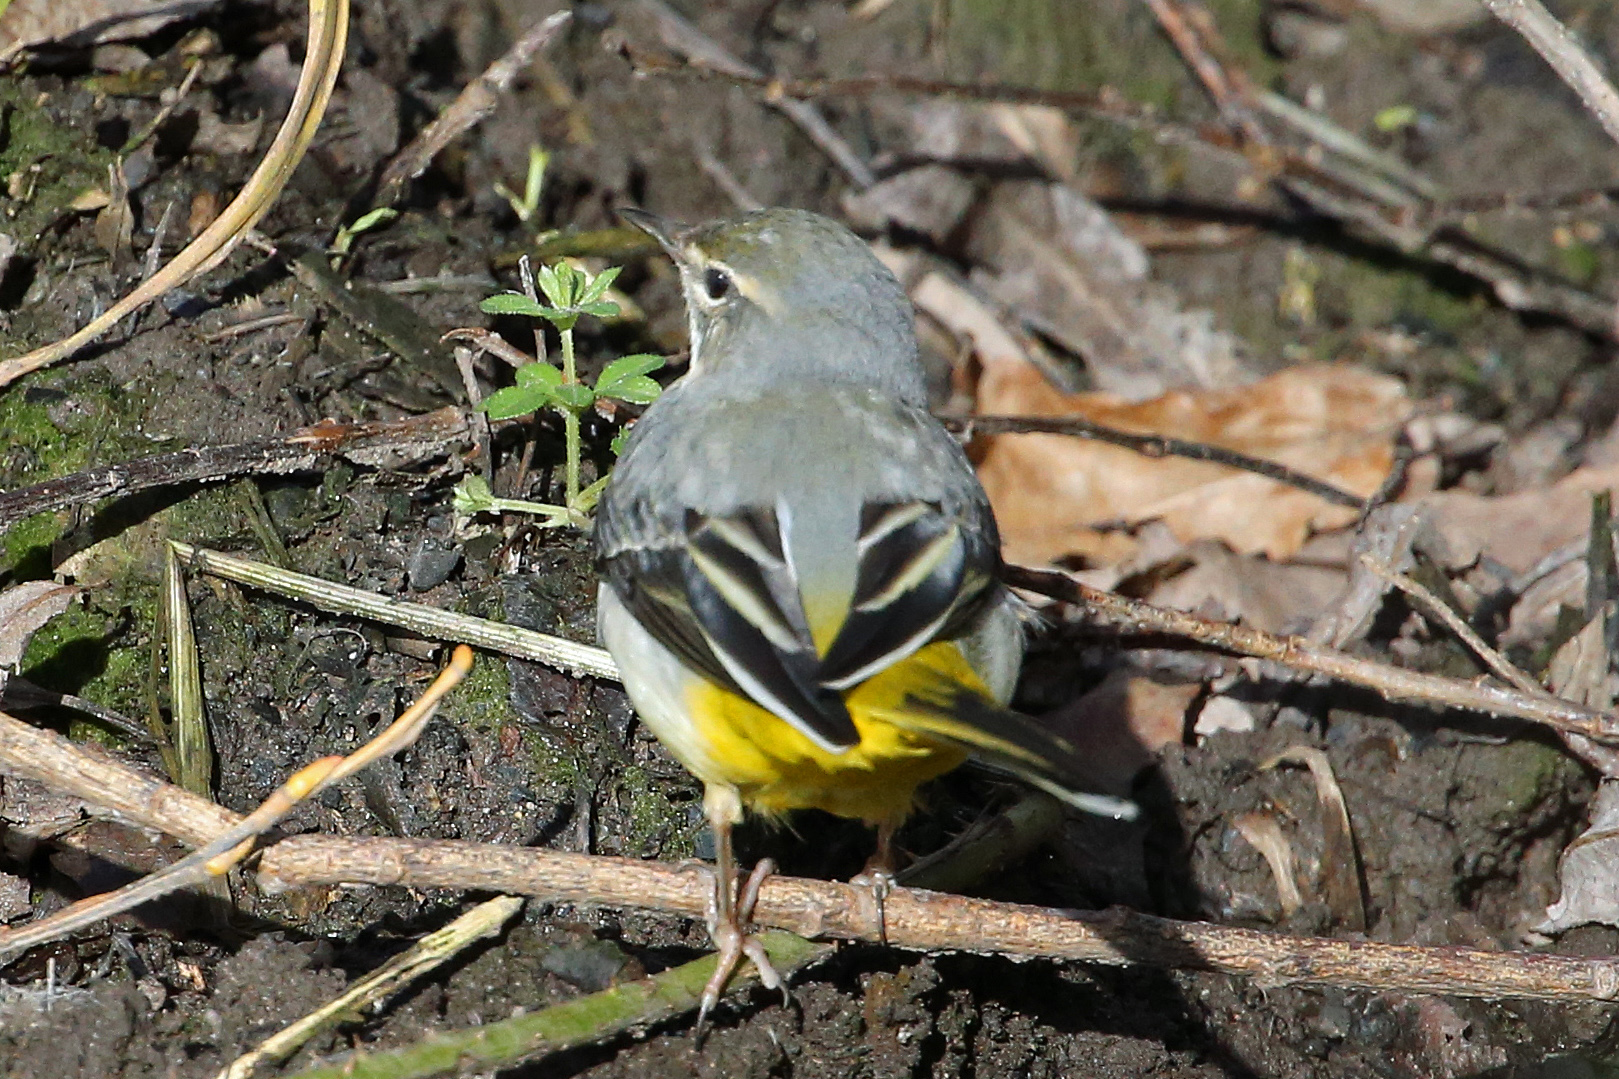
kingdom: Animalia
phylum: Chordata
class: Aves
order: Passeriformes
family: Motacillidae
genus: Motacilla
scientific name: Motacilla cinerea
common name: Grey wagtail
